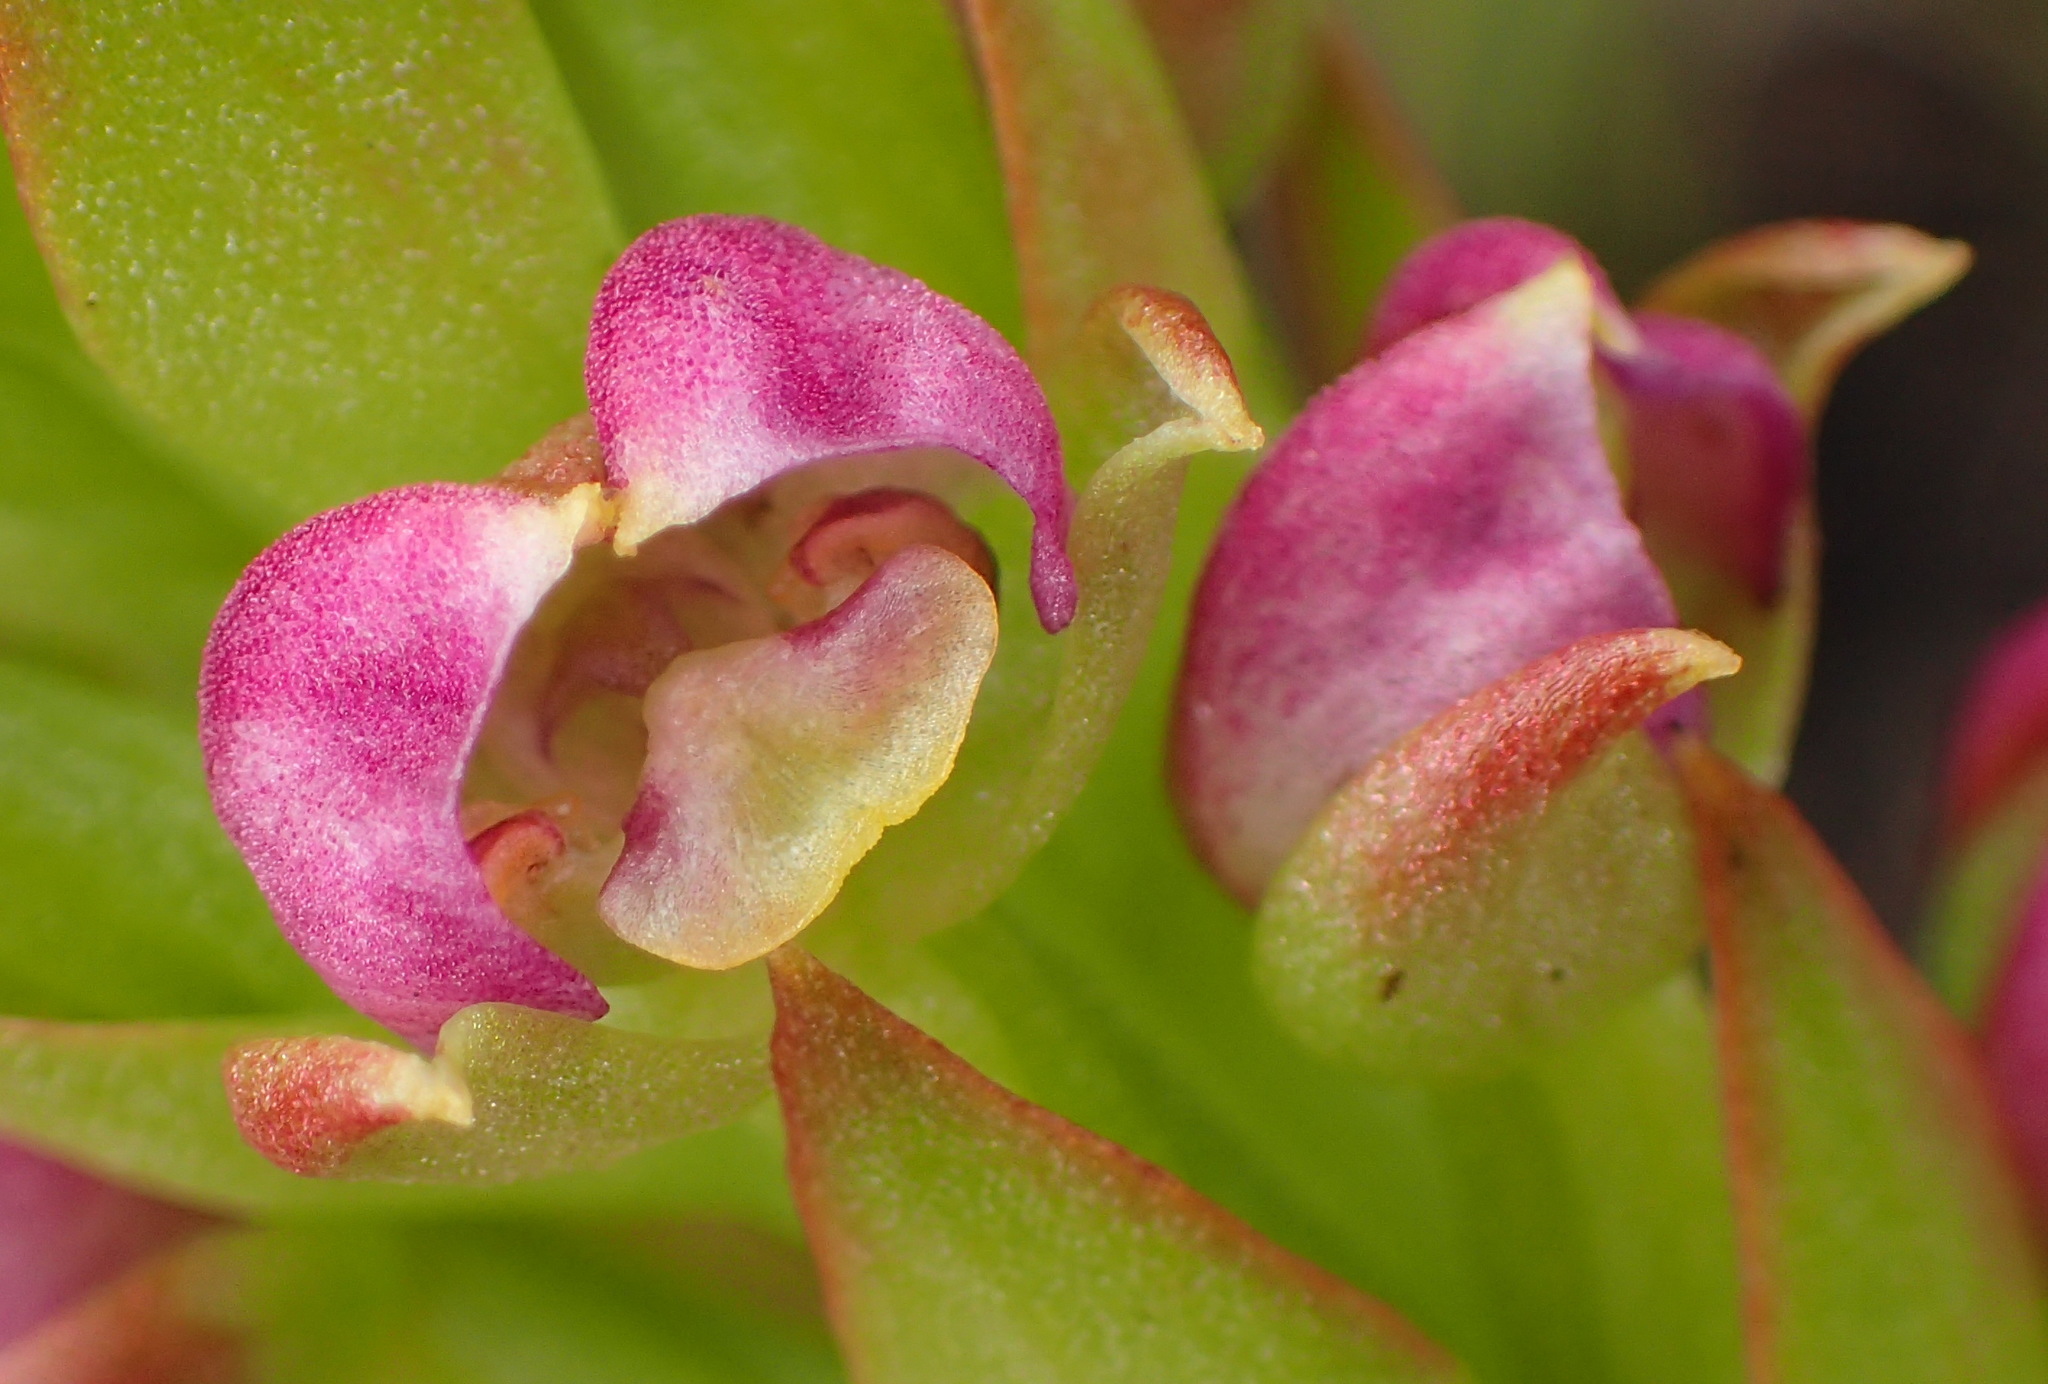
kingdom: Plantae
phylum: Tracheophyta
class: Liliopsida
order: Asparagales
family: Orchidaceae
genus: Evotella
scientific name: Evotella carnosa
